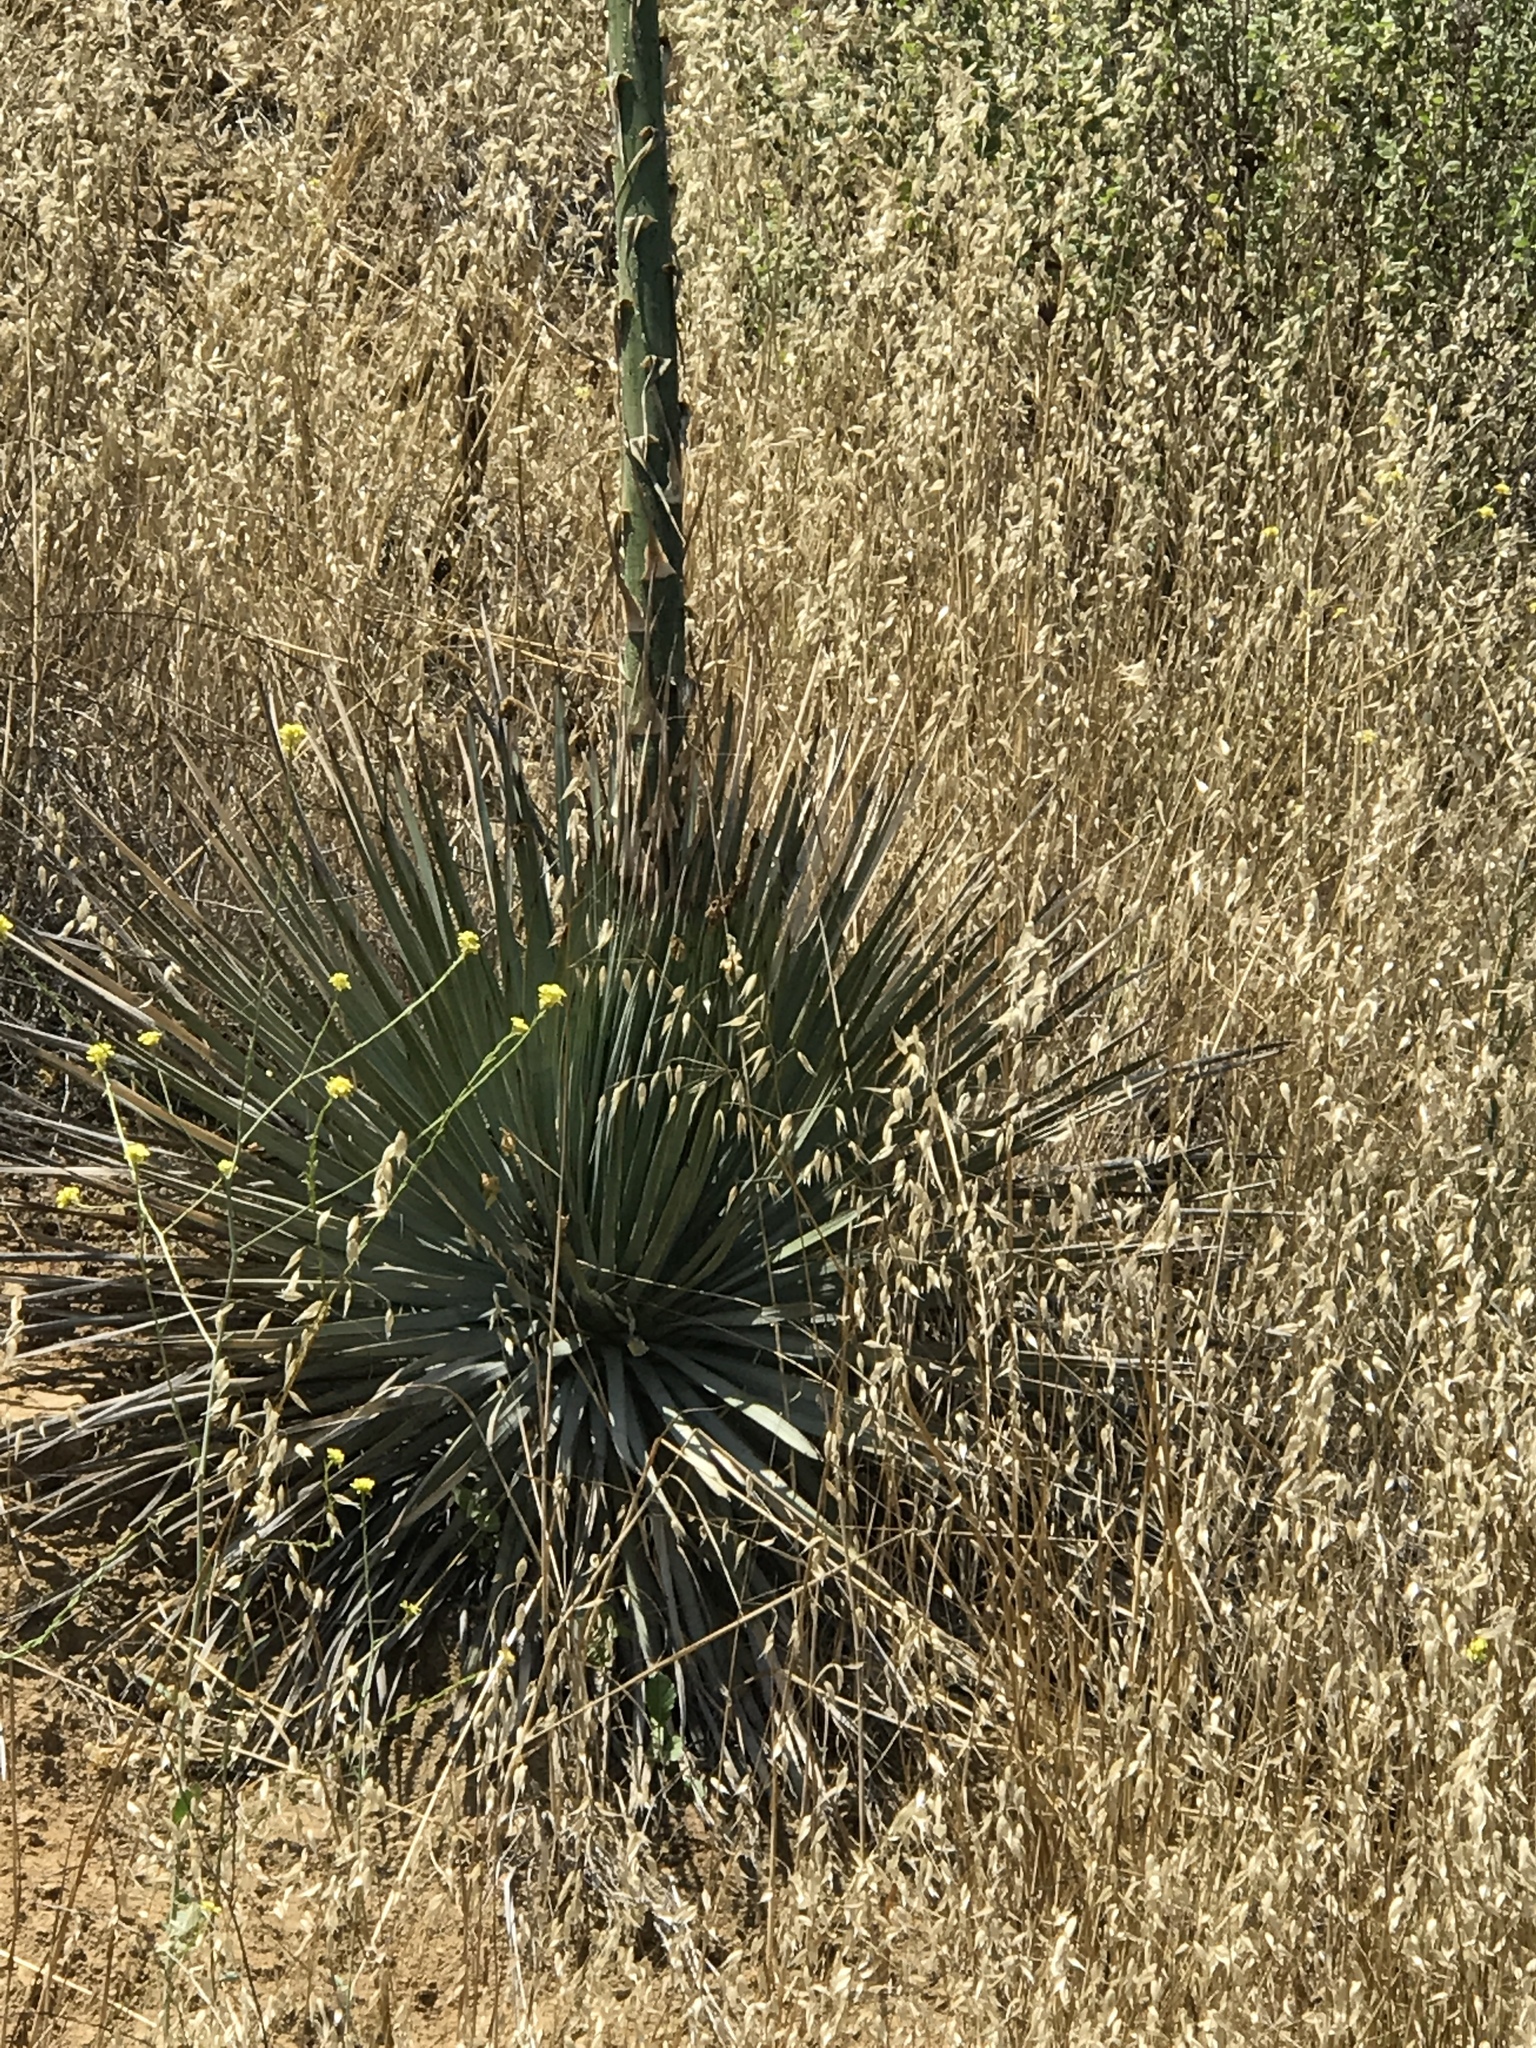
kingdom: Plantae
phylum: Tracheophyta
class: Liliopsida
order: Asparagales
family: Asparagaceae
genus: Hesperoyucca
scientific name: Hesperoyucca whipplei
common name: Our lord's-candle
